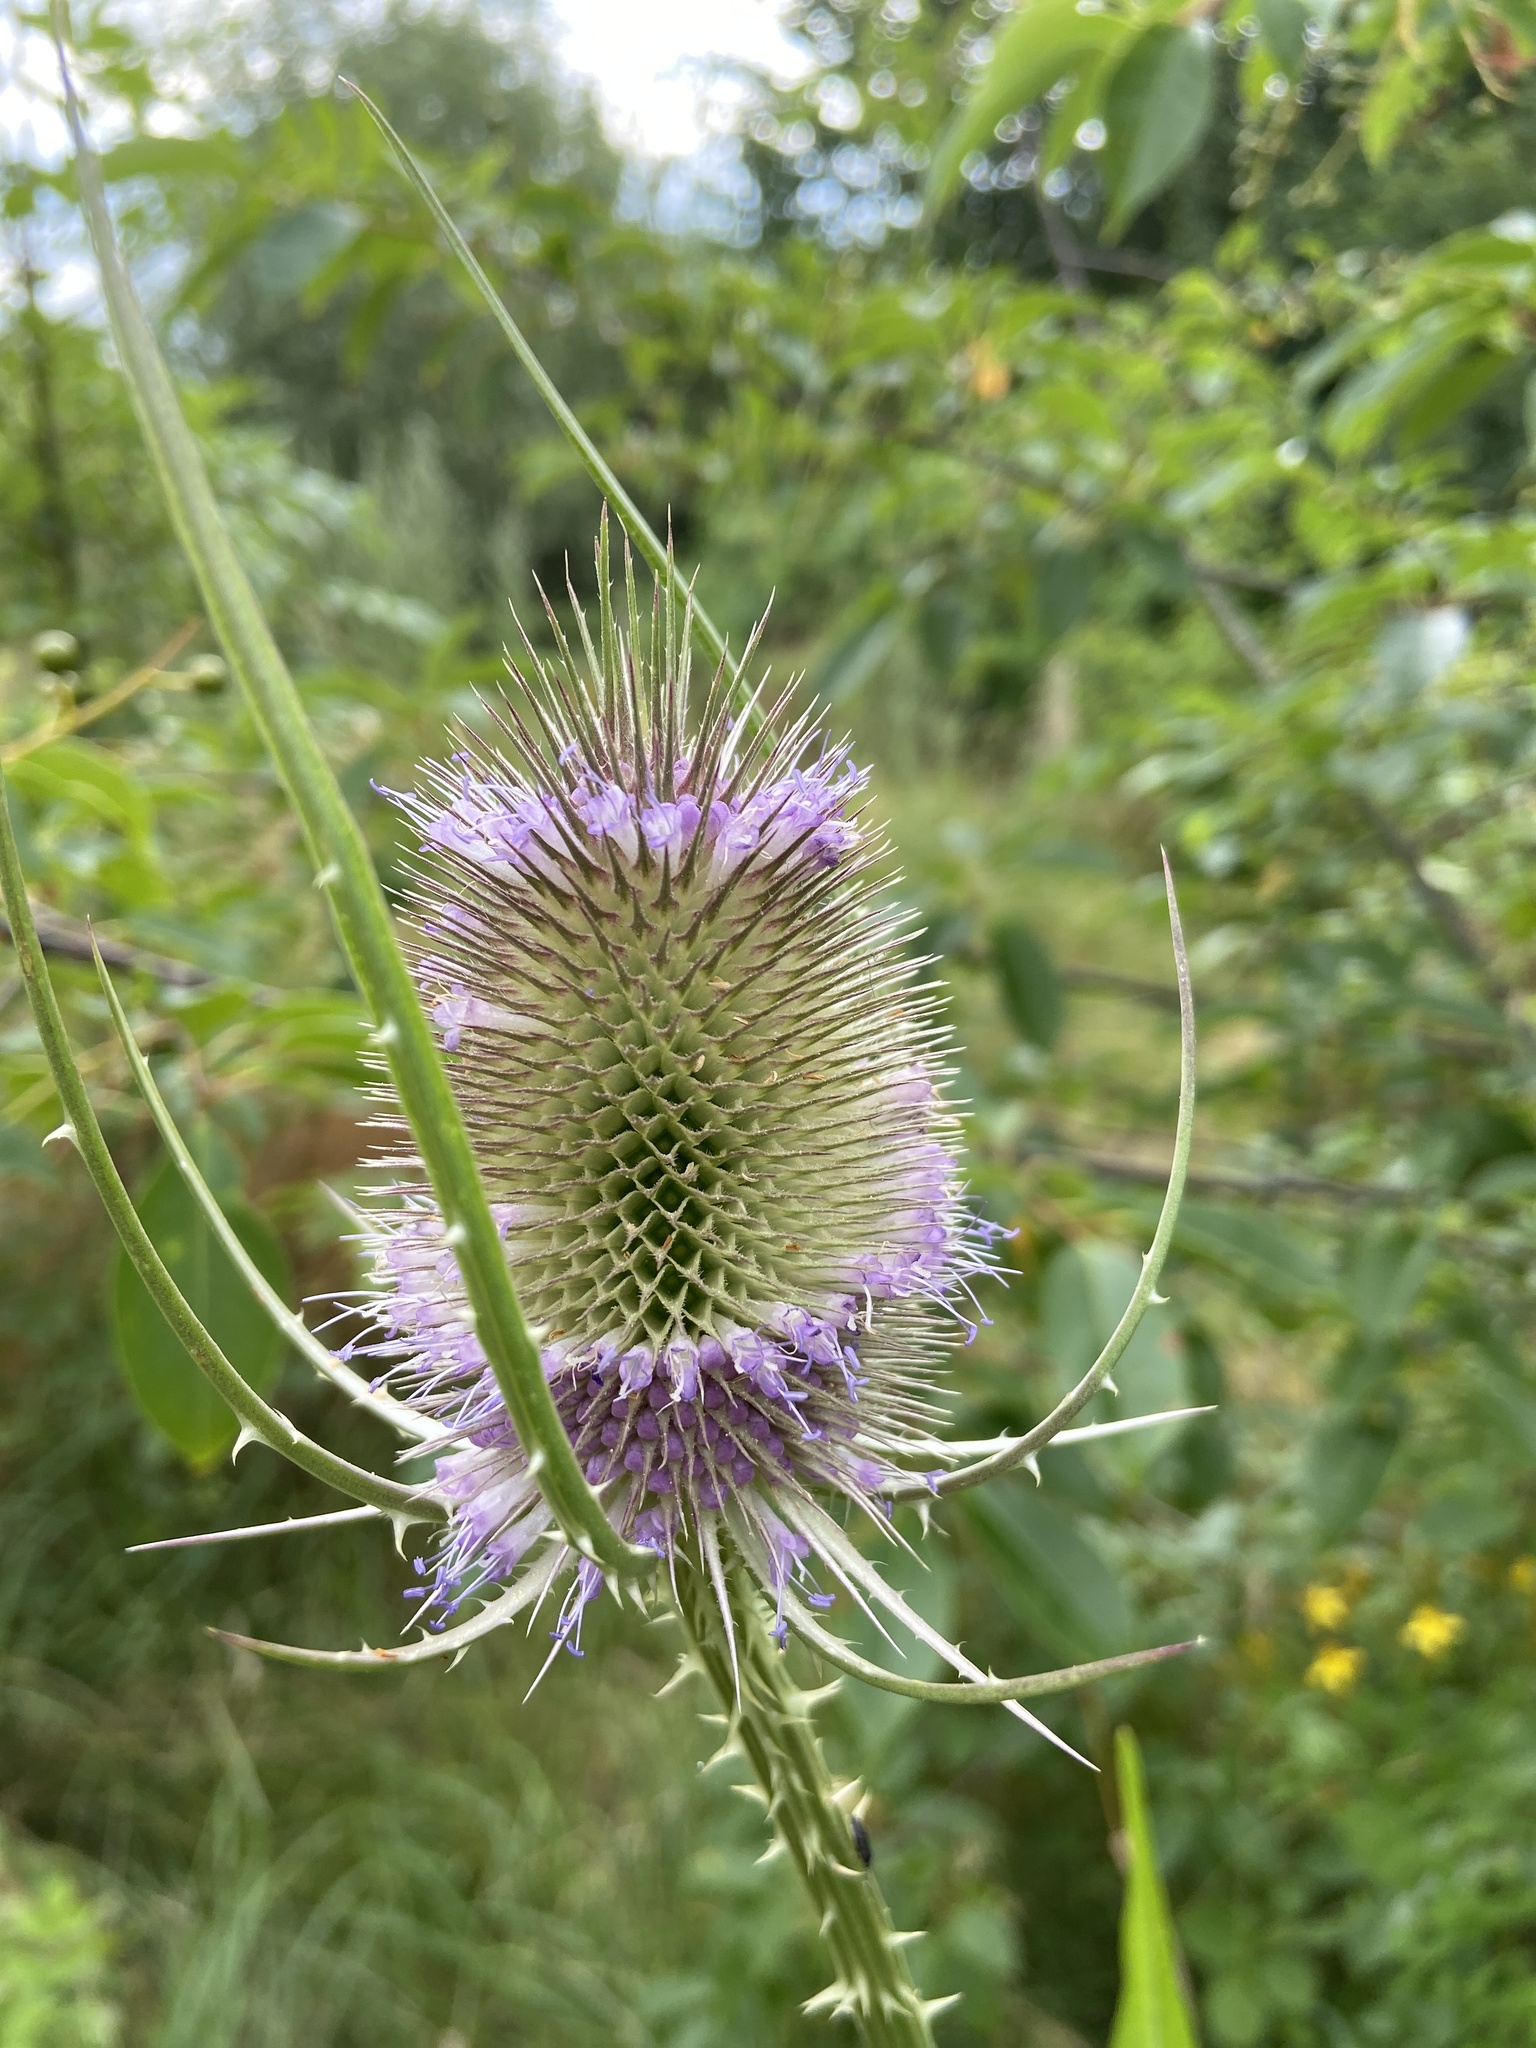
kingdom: Plantae
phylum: Tracheophyta
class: Magnoliopsida
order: Dipsacales
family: Caprifoliaceae
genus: Dipsacus
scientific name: Dipsacus fullonum
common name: Teasel
